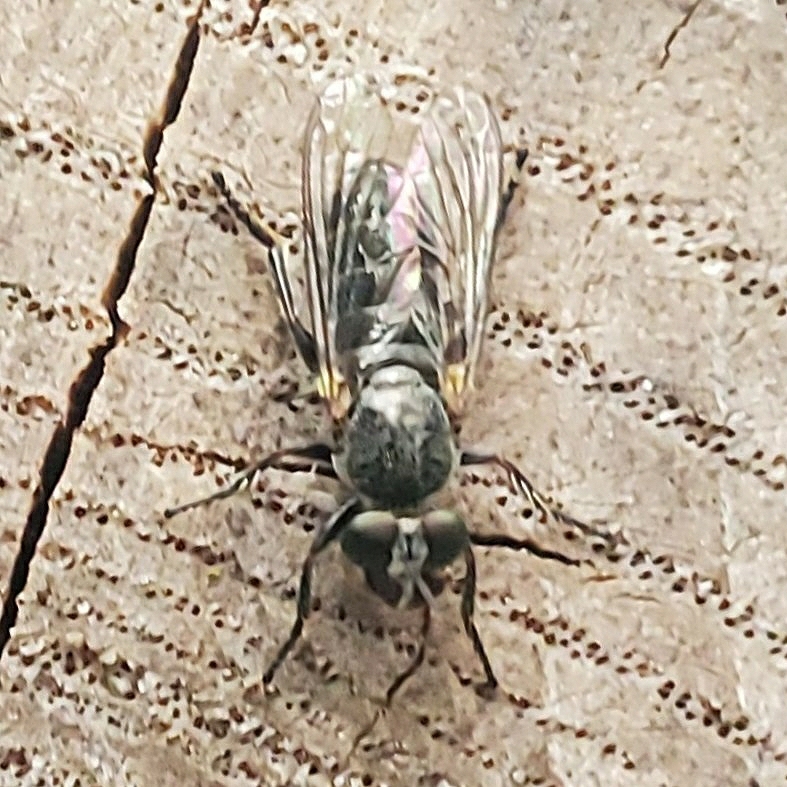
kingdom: Animalia
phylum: Arthropoda
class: Insecta
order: Diptera
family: Asilidae
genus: Atomosia
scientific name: Atomosia puella
